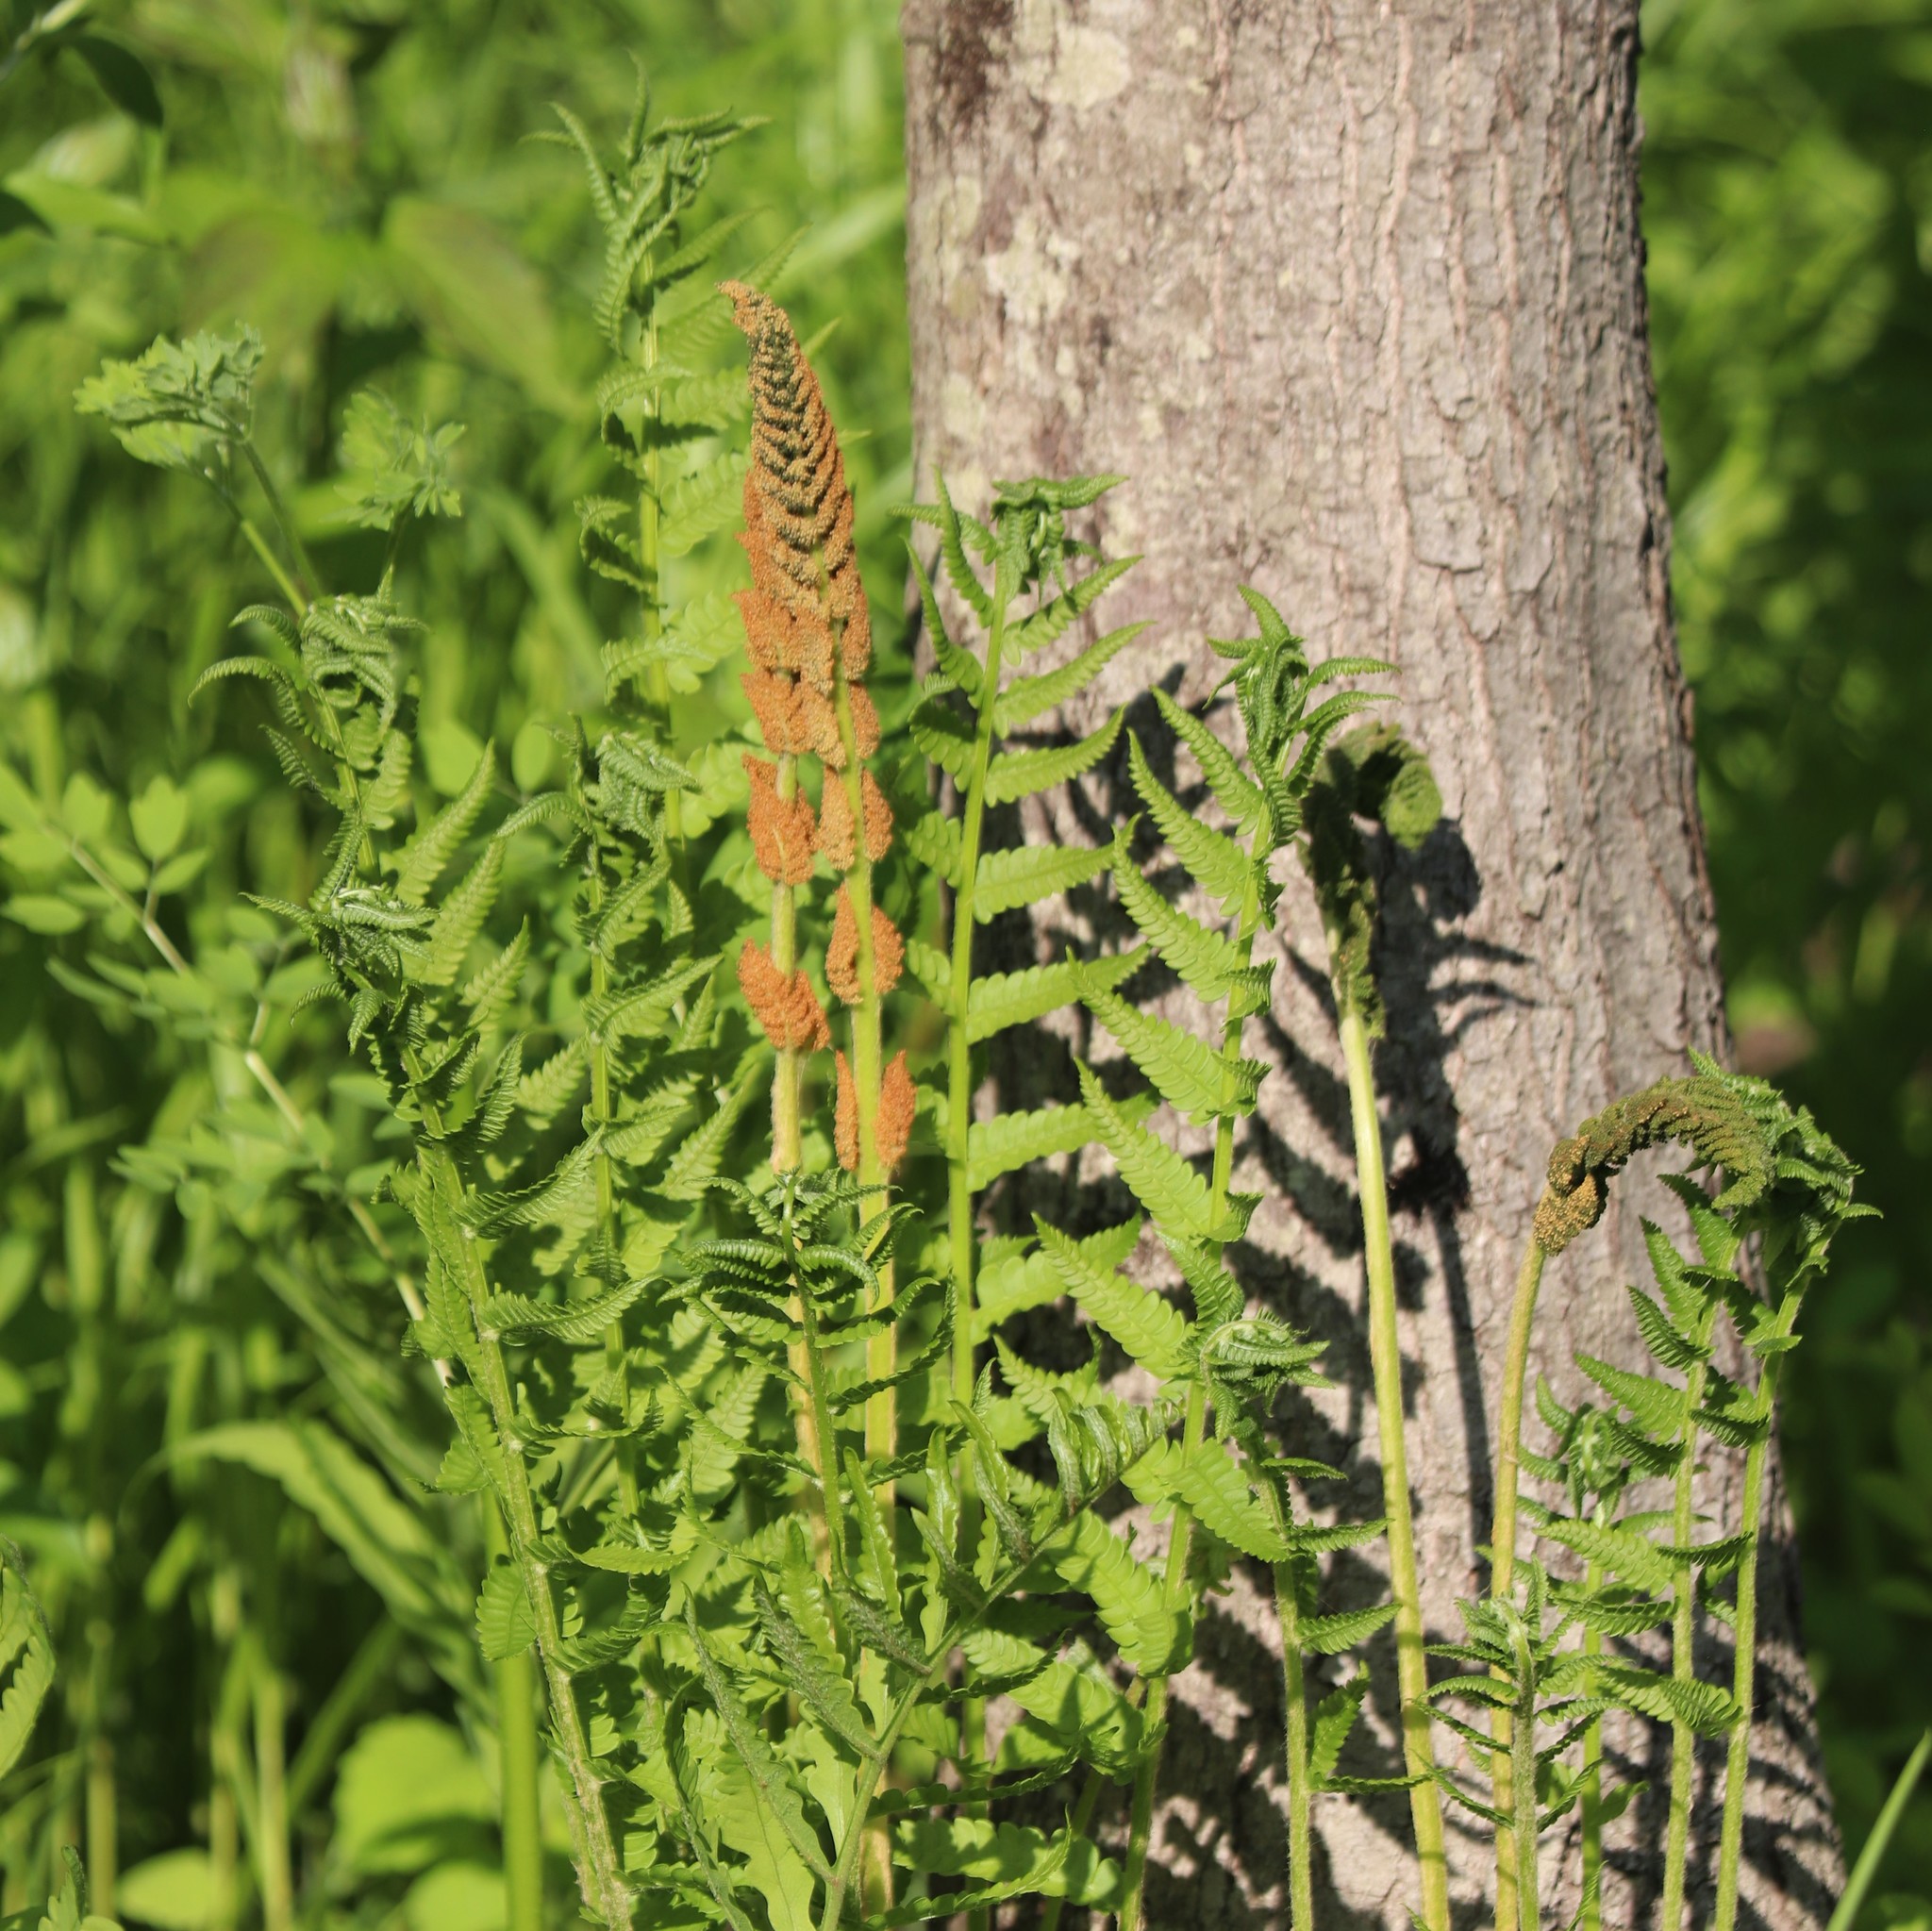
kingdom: Plantae
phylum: Tracheophyta
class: Polypodiopsida
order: Osmundales
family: Osmundaceae
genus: Osmundastrum
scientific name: Osmundastrum cinnamomeum
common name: Cinnamon fern
